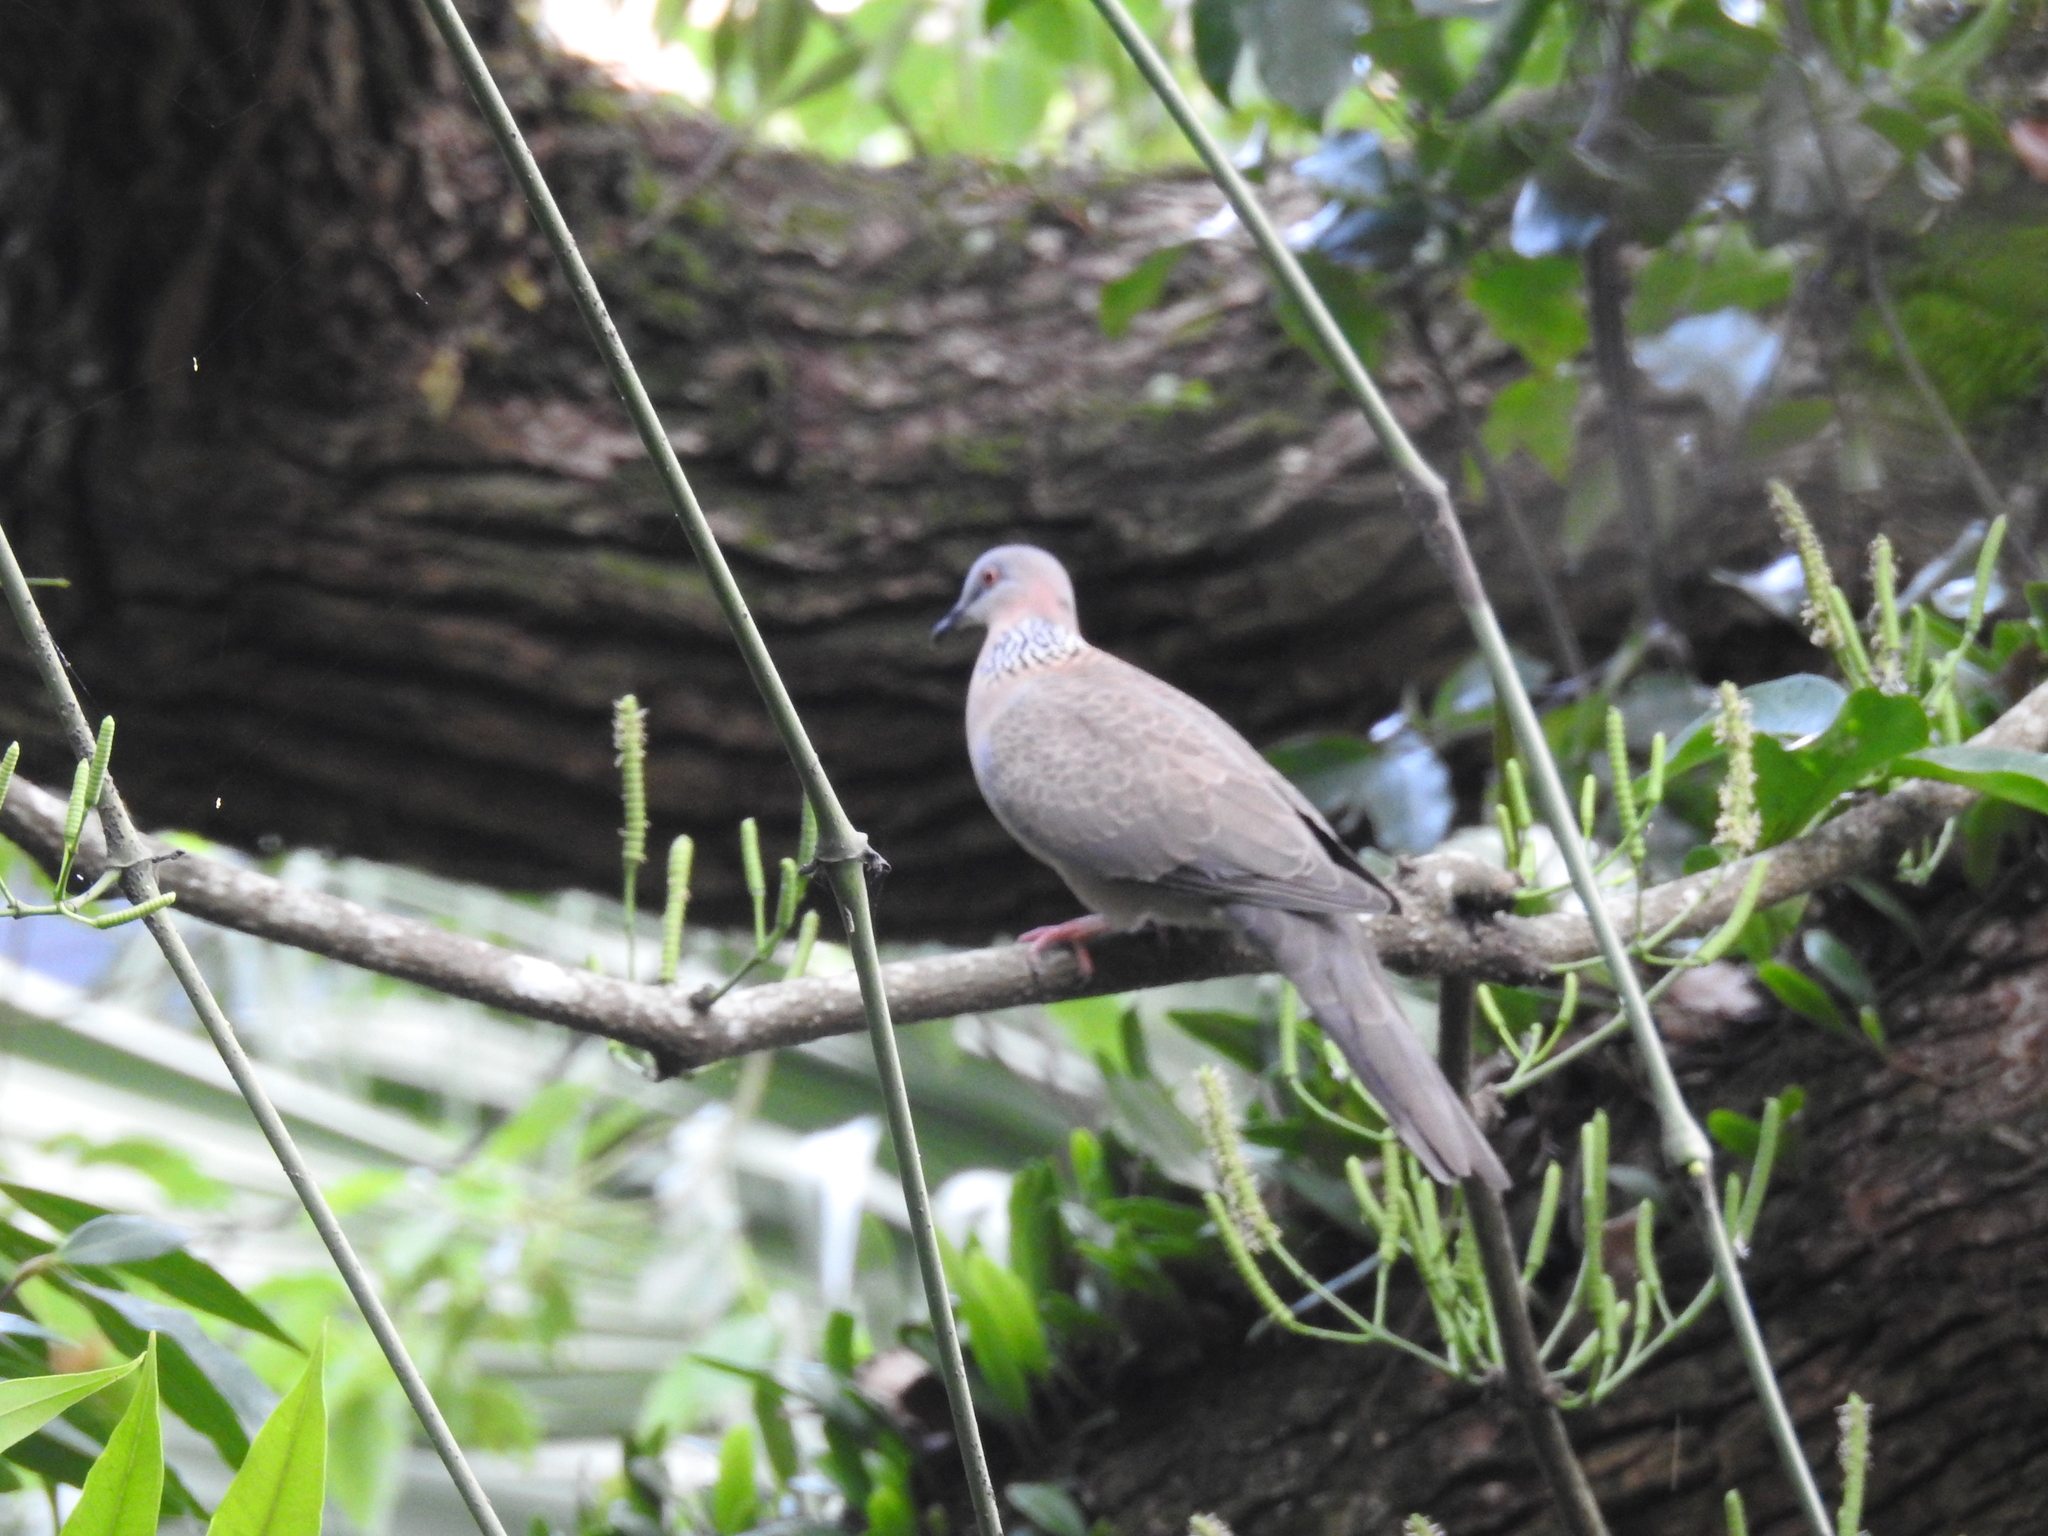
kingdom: Animalia
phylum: Chordata
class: Aves
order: Columbiformes
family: Columbidae
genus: Spilopelia
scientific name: Spilopelia chinensis
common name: Spotted dove
